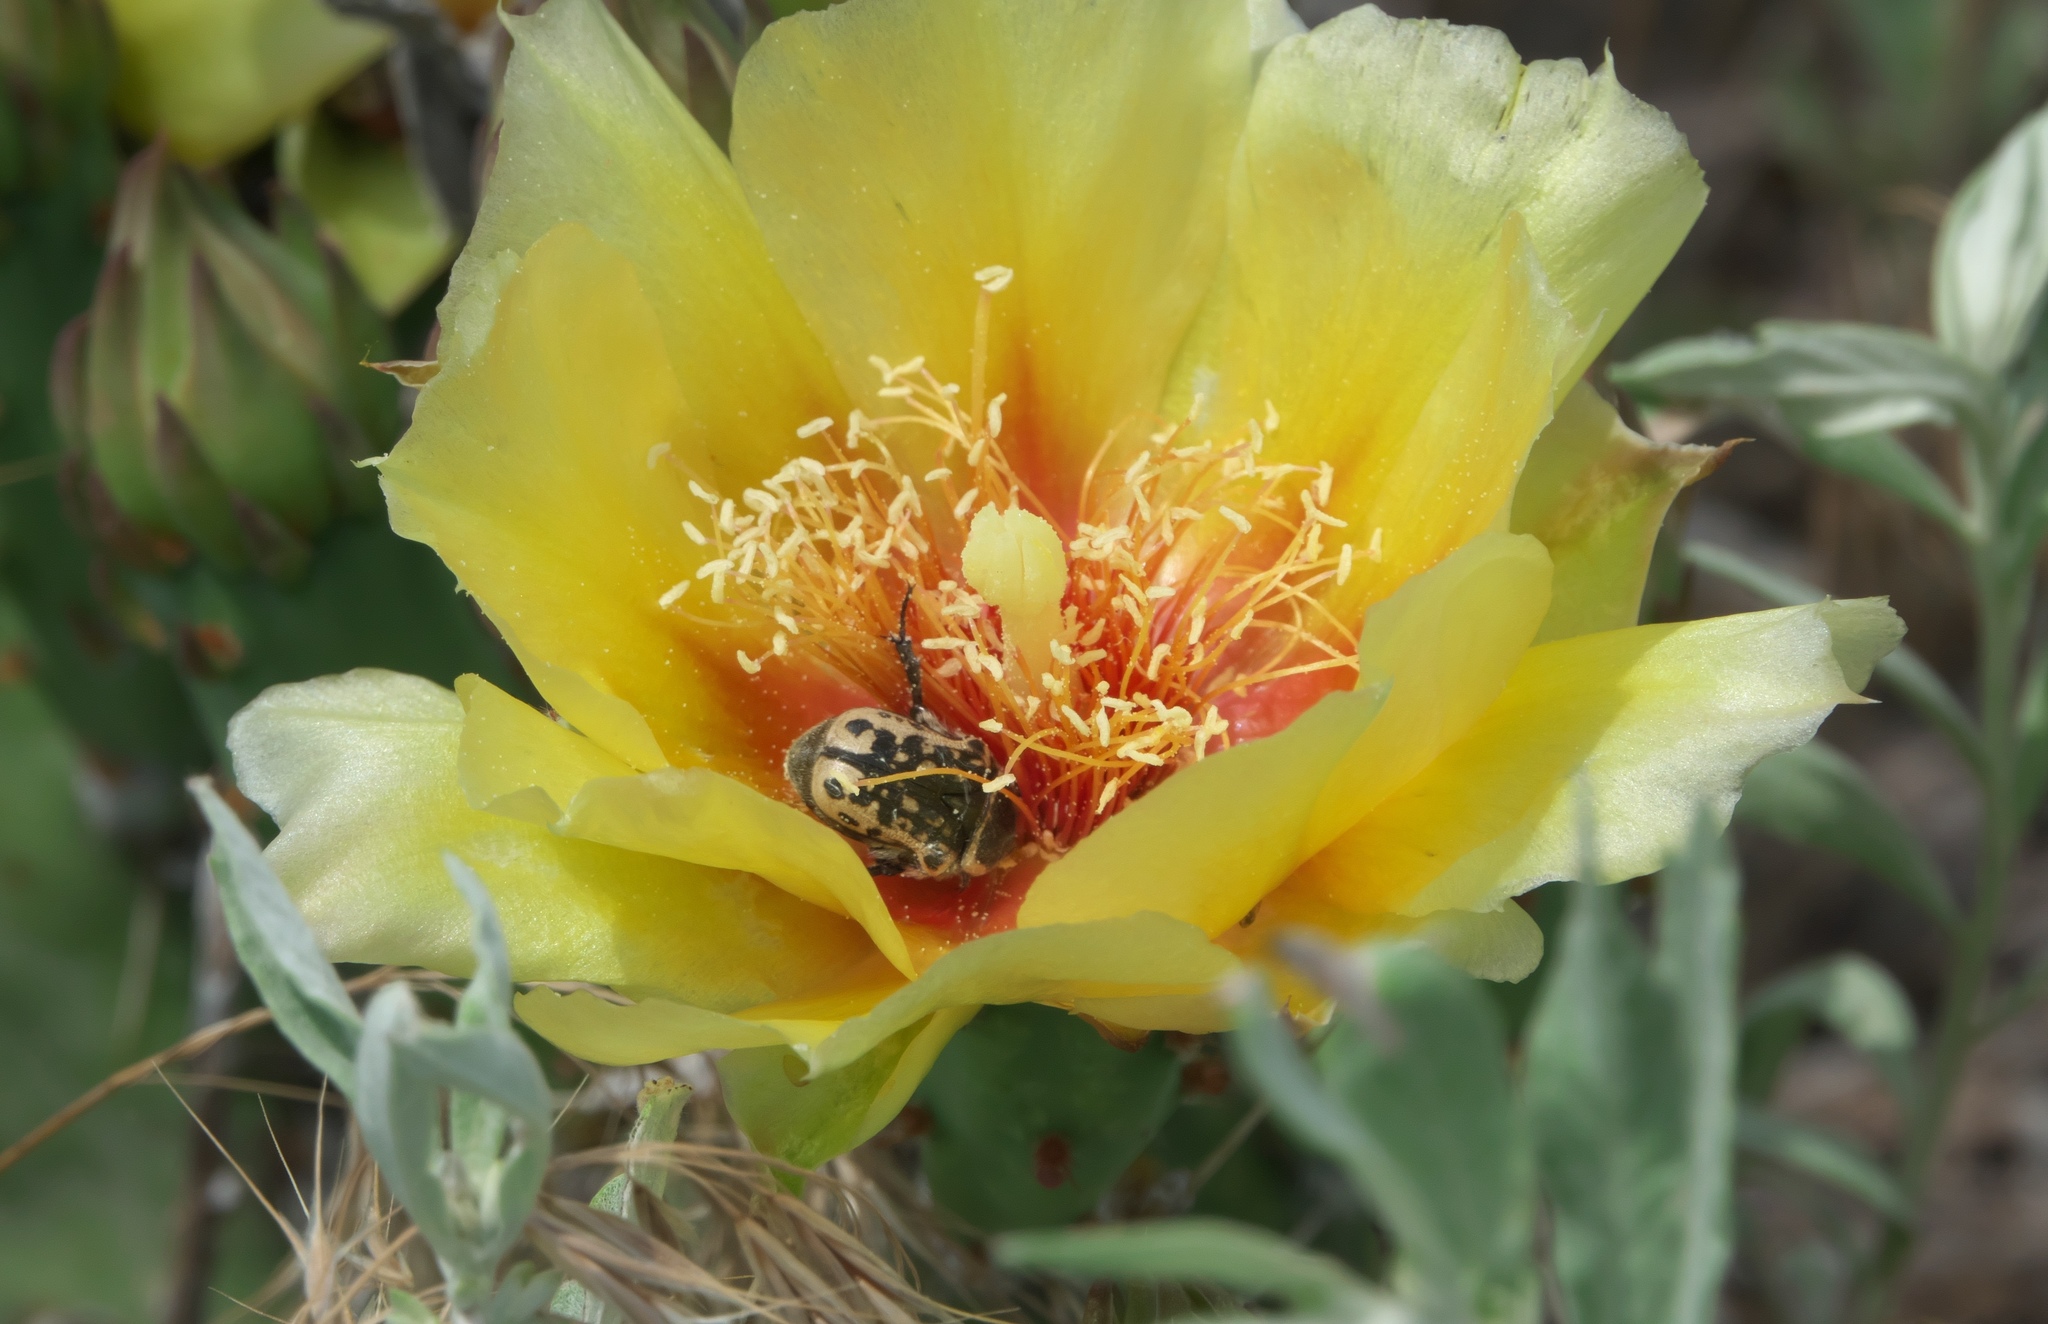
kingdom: Animalia
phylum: Arthropoda
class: Insecta
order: Coleoptera
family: Scarabaeidae
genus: Euphoria
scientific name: Euphoria kernii
